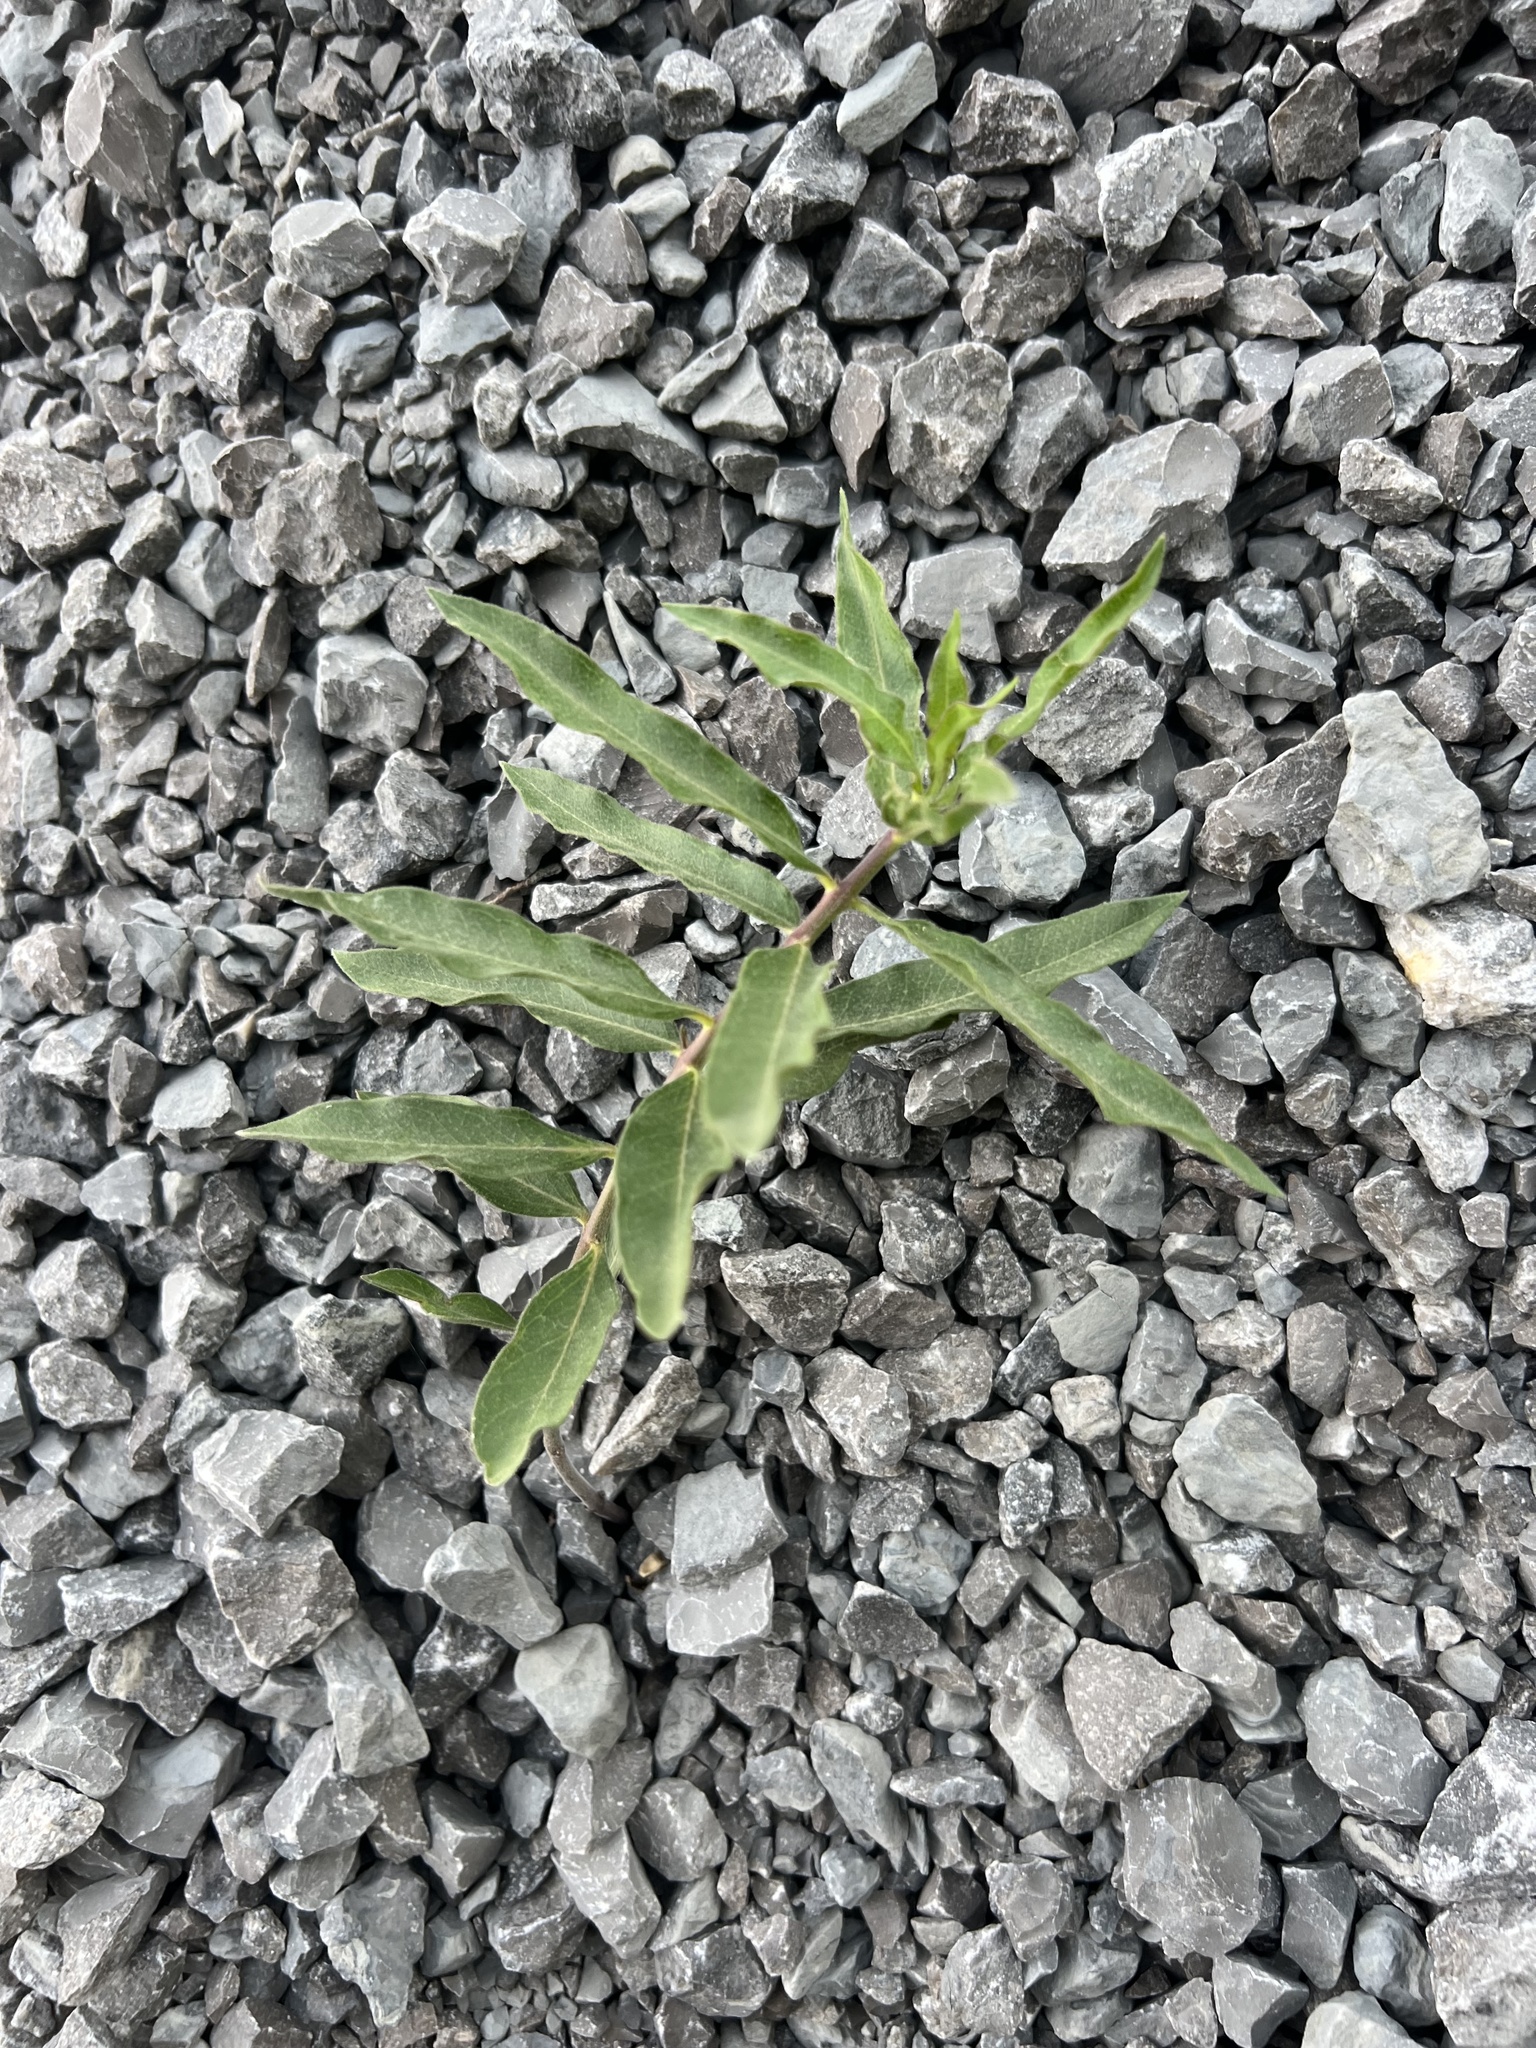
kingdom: Plantae
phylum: Tracheophyta
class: Magnoliopsida
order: Gentianales
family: Apocynaceae
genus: Asclepias
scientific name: Asclepias viridiflora
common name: Green comet milkweed
